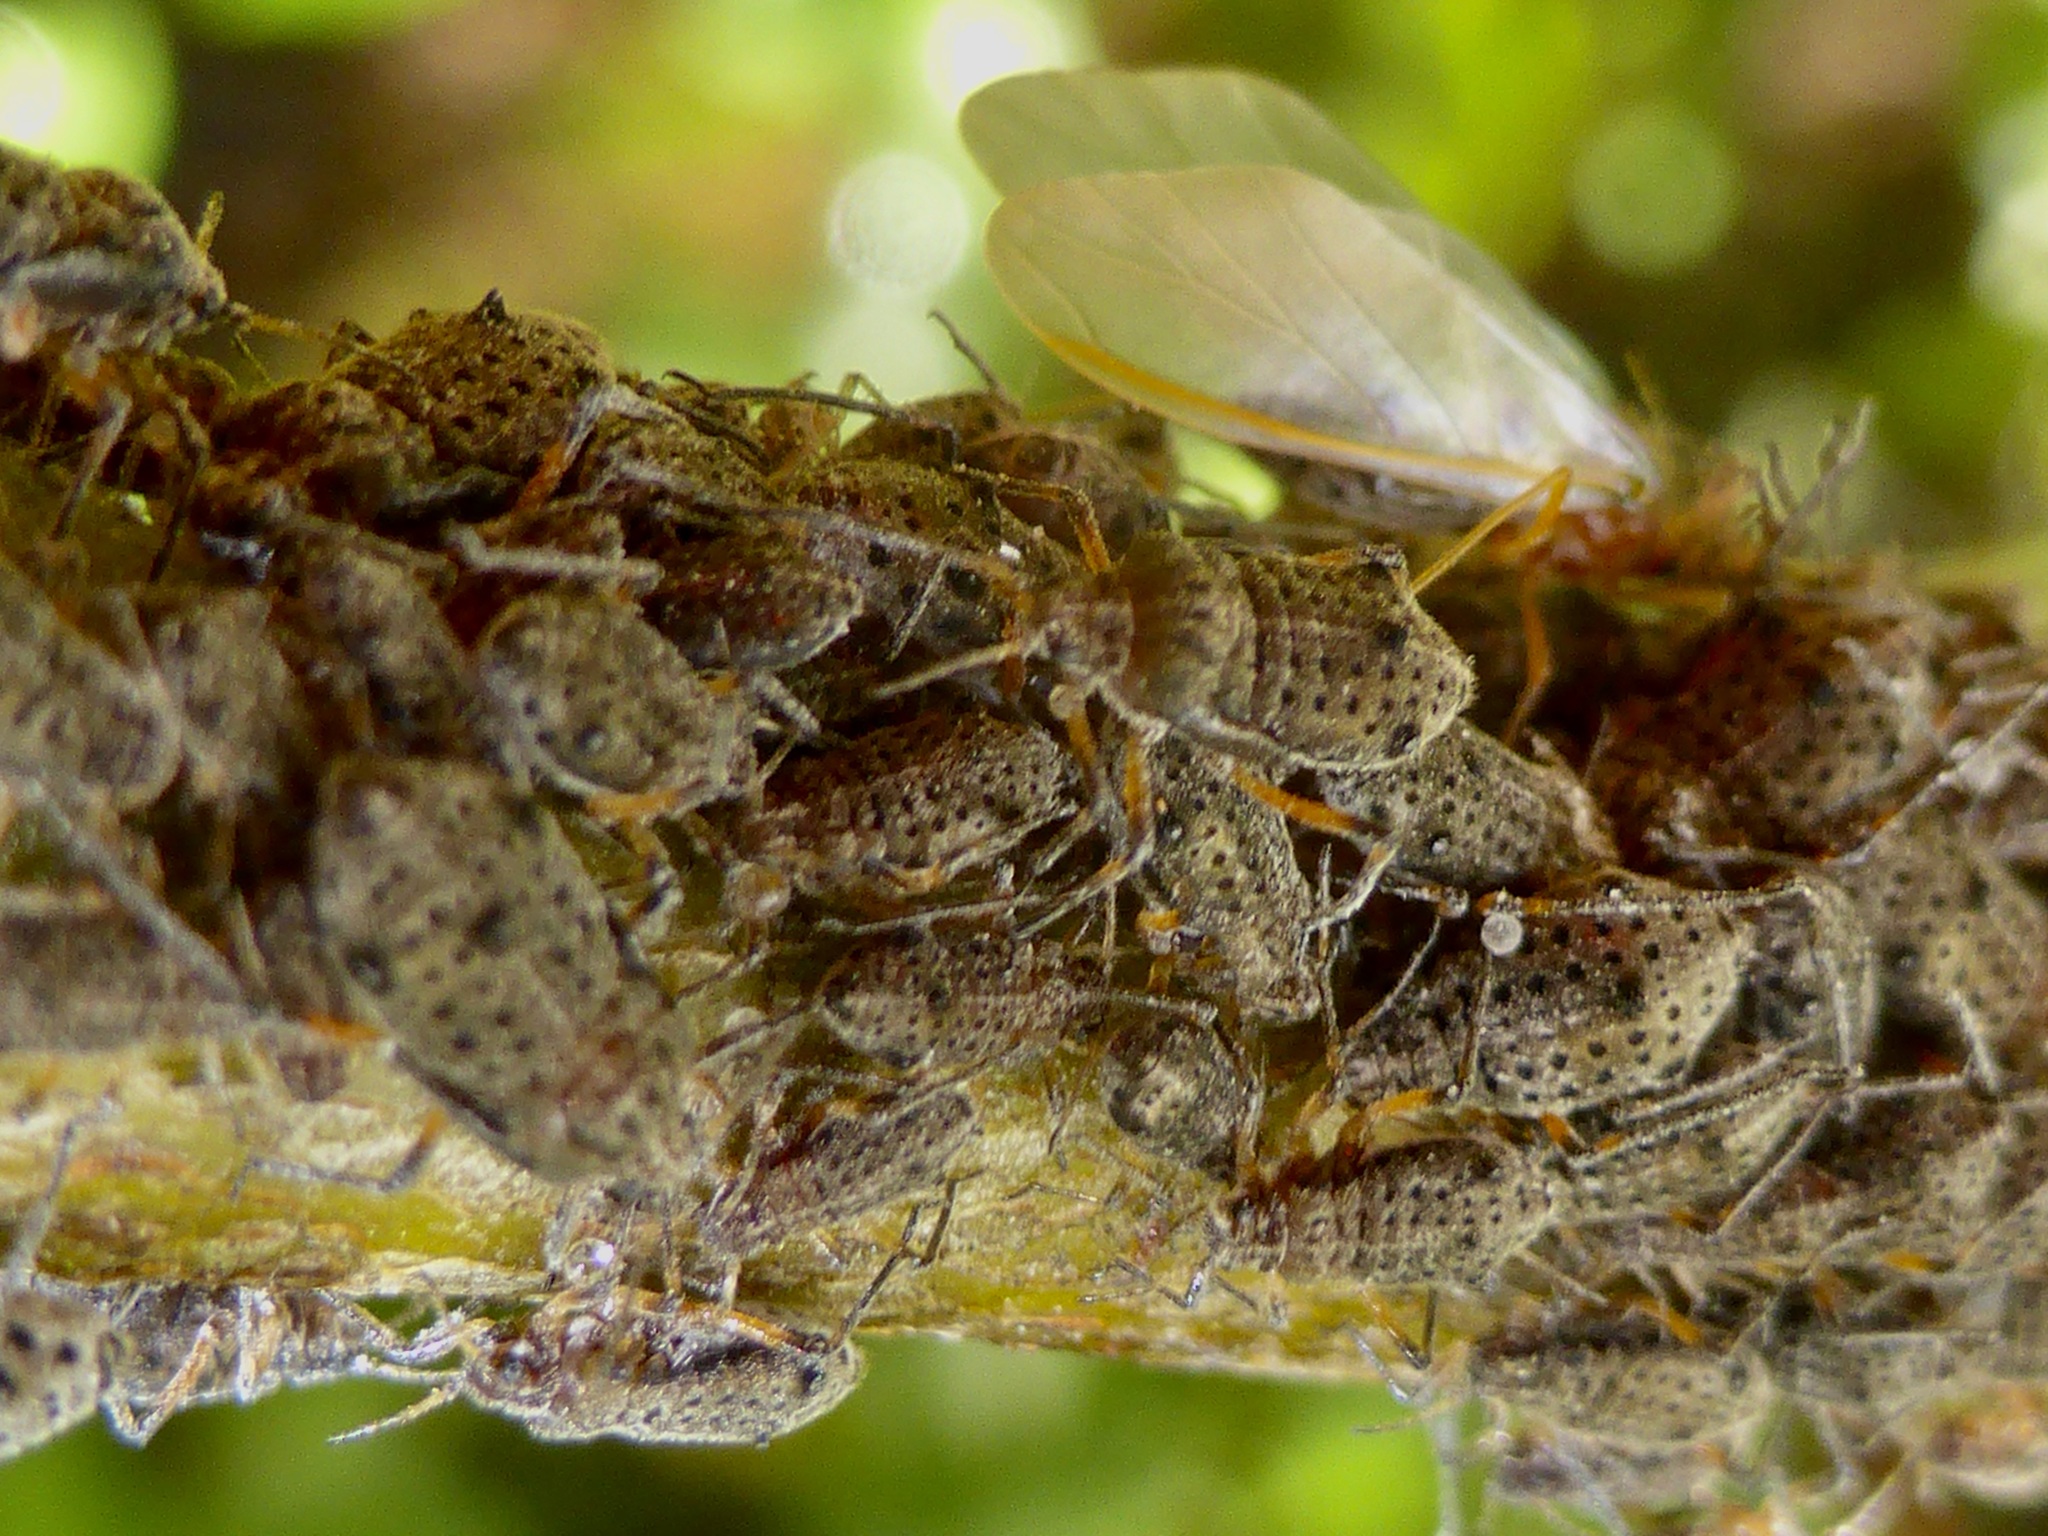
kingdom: Animalia
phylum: Arthropoda
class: Insecta
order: Hemiptera
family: Aphididae
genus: Tuberolachnus
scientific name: Tuberolachnus salignus
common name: Giant willow aphid
